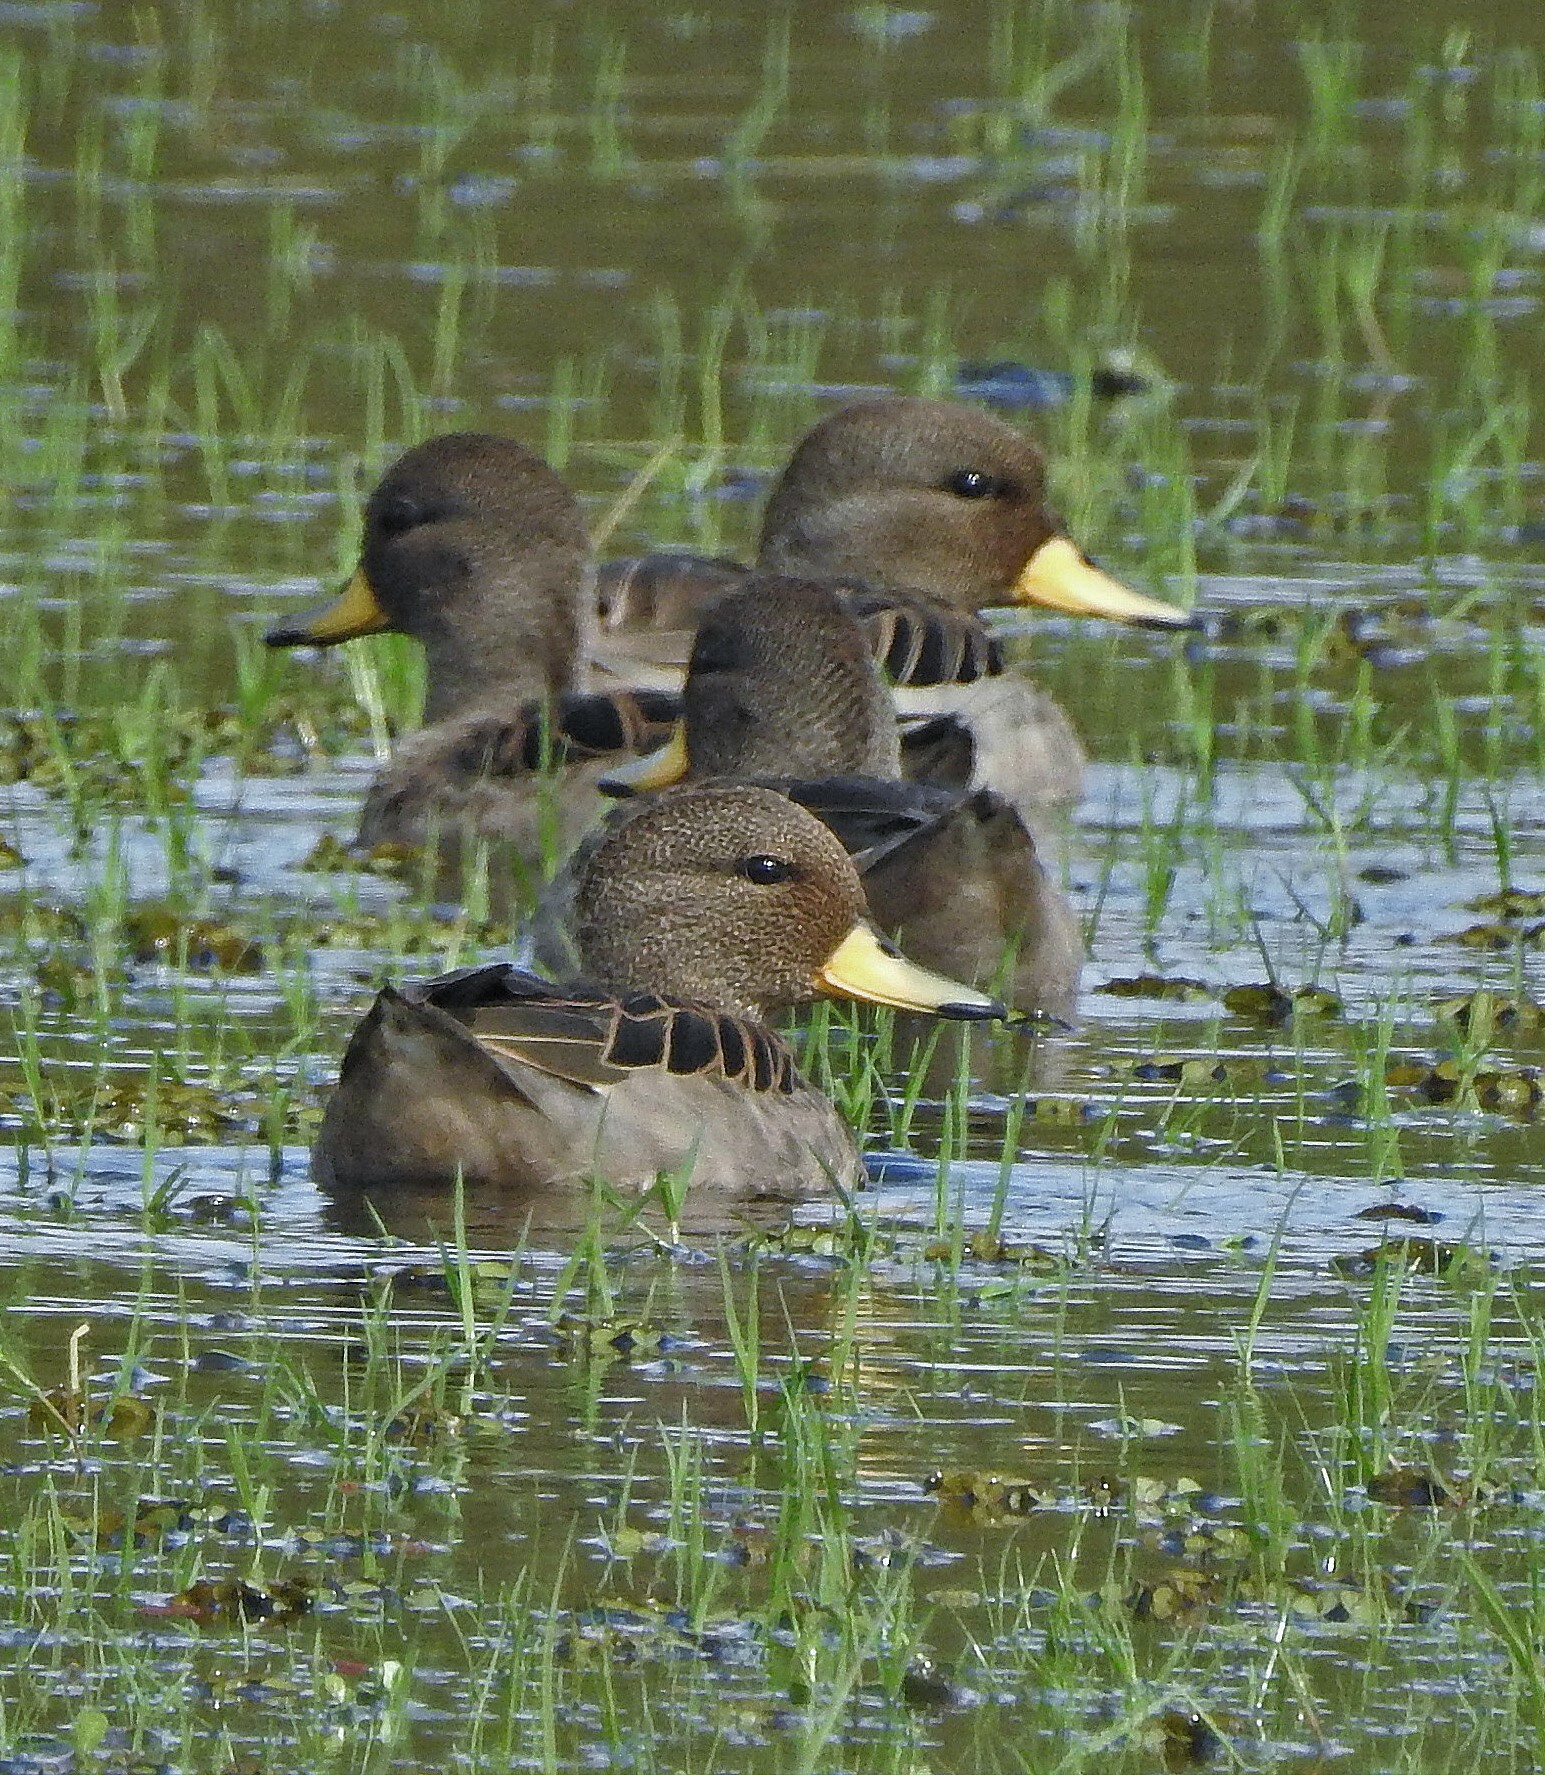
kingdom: Animalia
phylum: Chordata
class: Aves
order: Anseriformes
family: Anatidae
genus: Anas
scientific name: Anas flavirostris
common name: Yellow-billed teal
